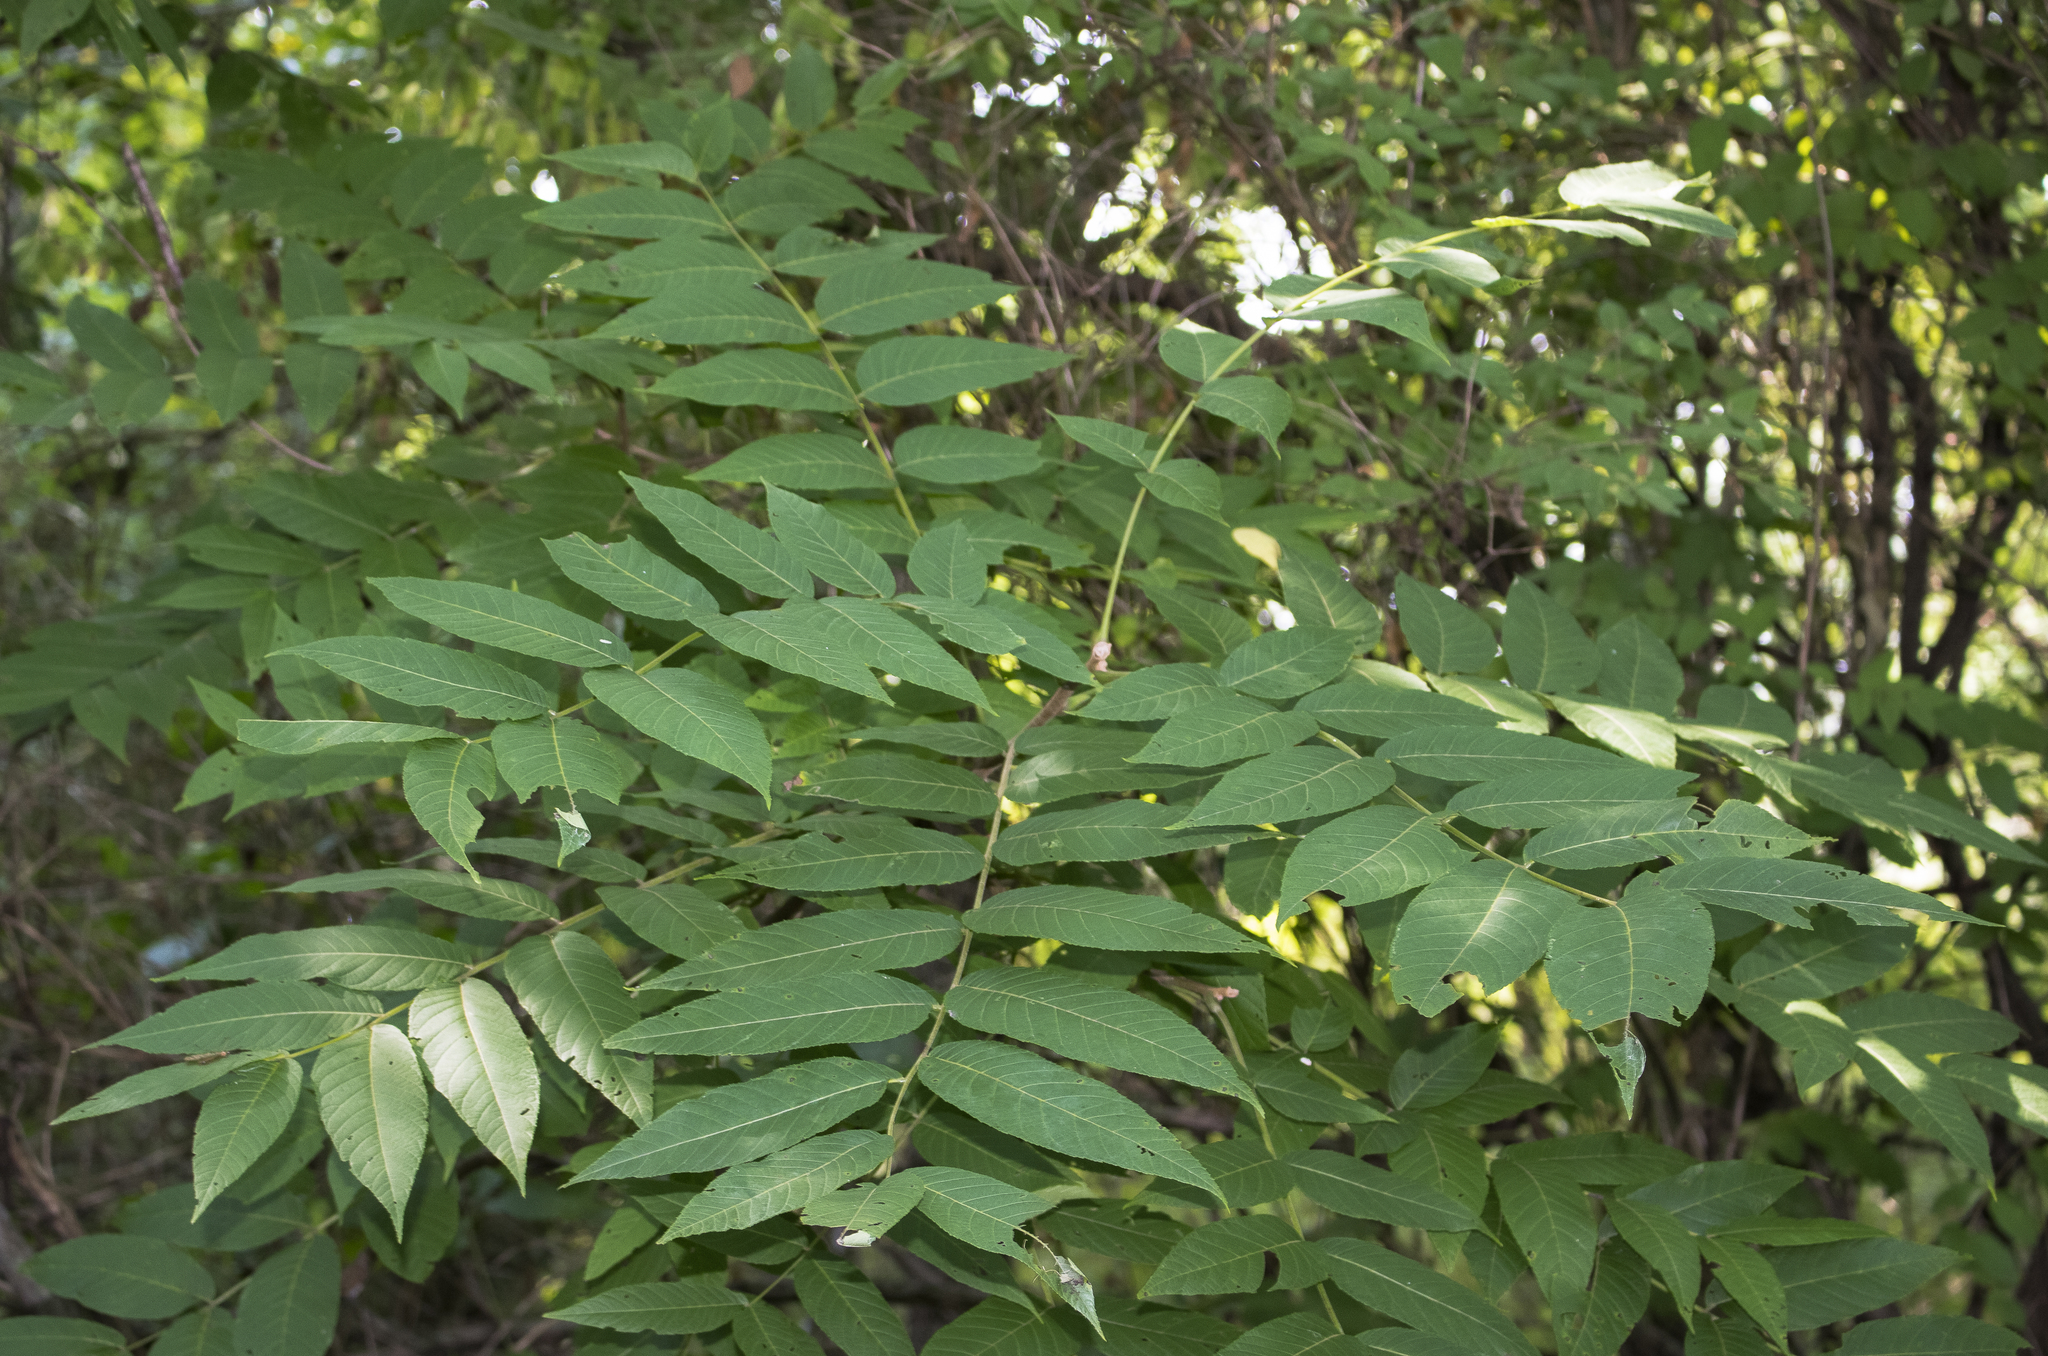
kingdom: Plantae
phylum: Tracheophyta
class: Magnoliopsida
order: Fagales
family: Juglandaceae
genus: Juglans
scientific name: Juglans nigra
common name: Black walnut
